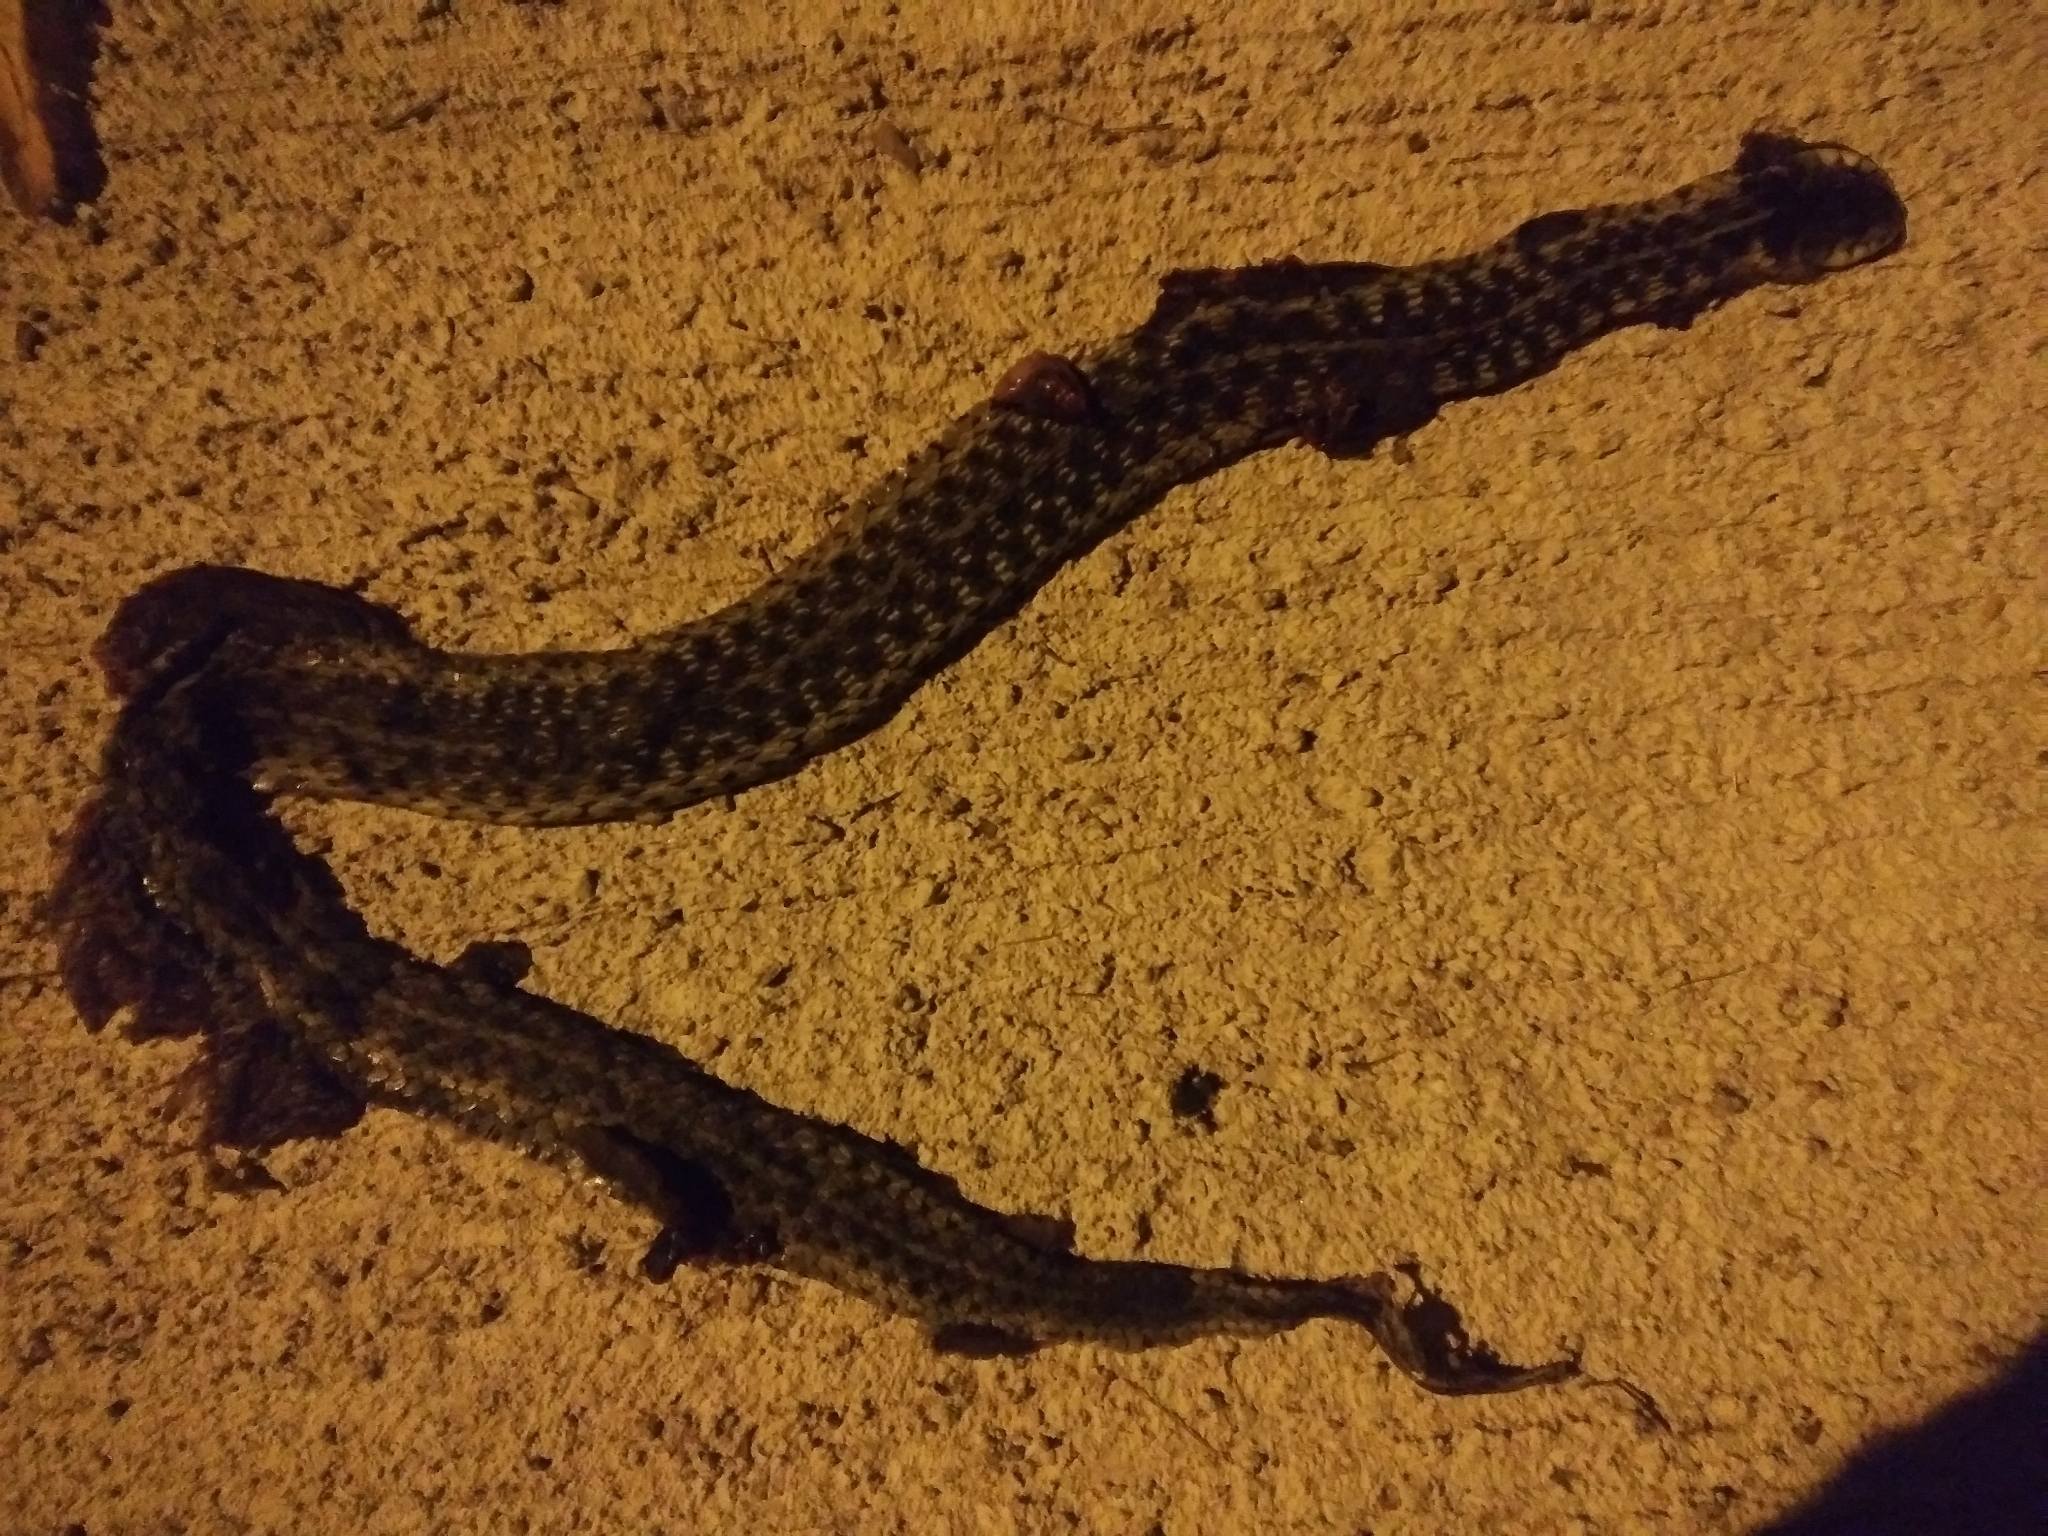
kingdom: Animalia
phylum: Chordata
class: Squamata
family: Colubridae
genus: Thamnophis
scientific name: Thamnophis sirtalis
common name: Common garter snake
